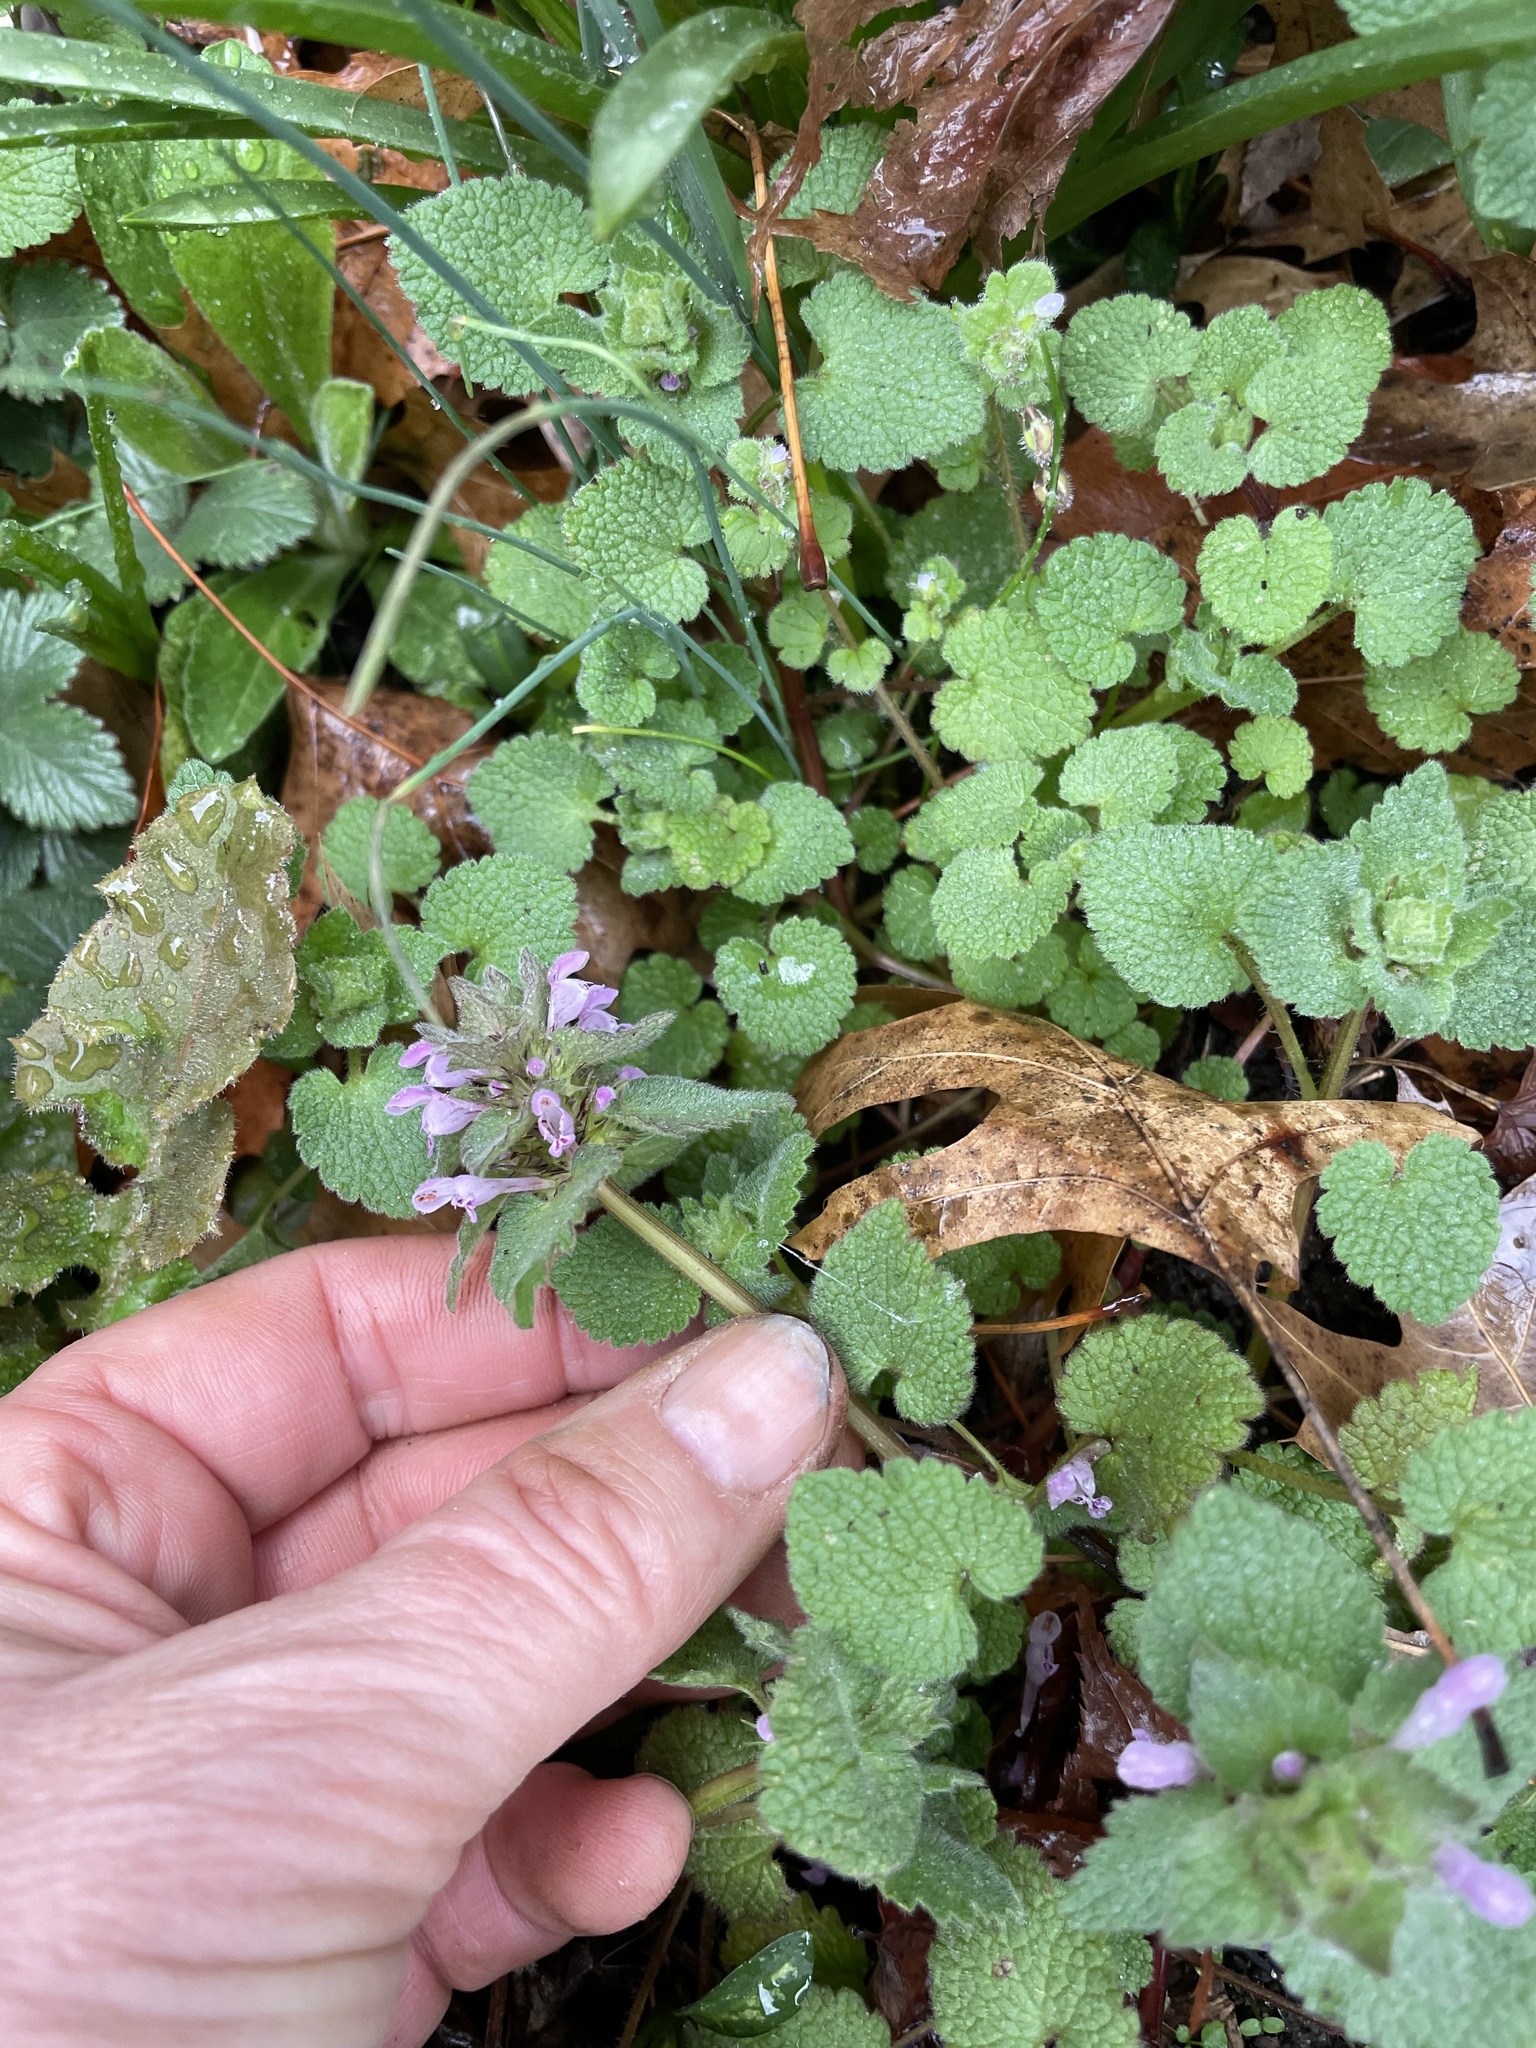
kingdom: Plantae
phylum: Tracheophyta
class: Magnoliopsida
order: Lamiales
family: Lamiaceae
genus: Lamium
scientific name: Lamium purpureum
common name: Red dead-nettle
